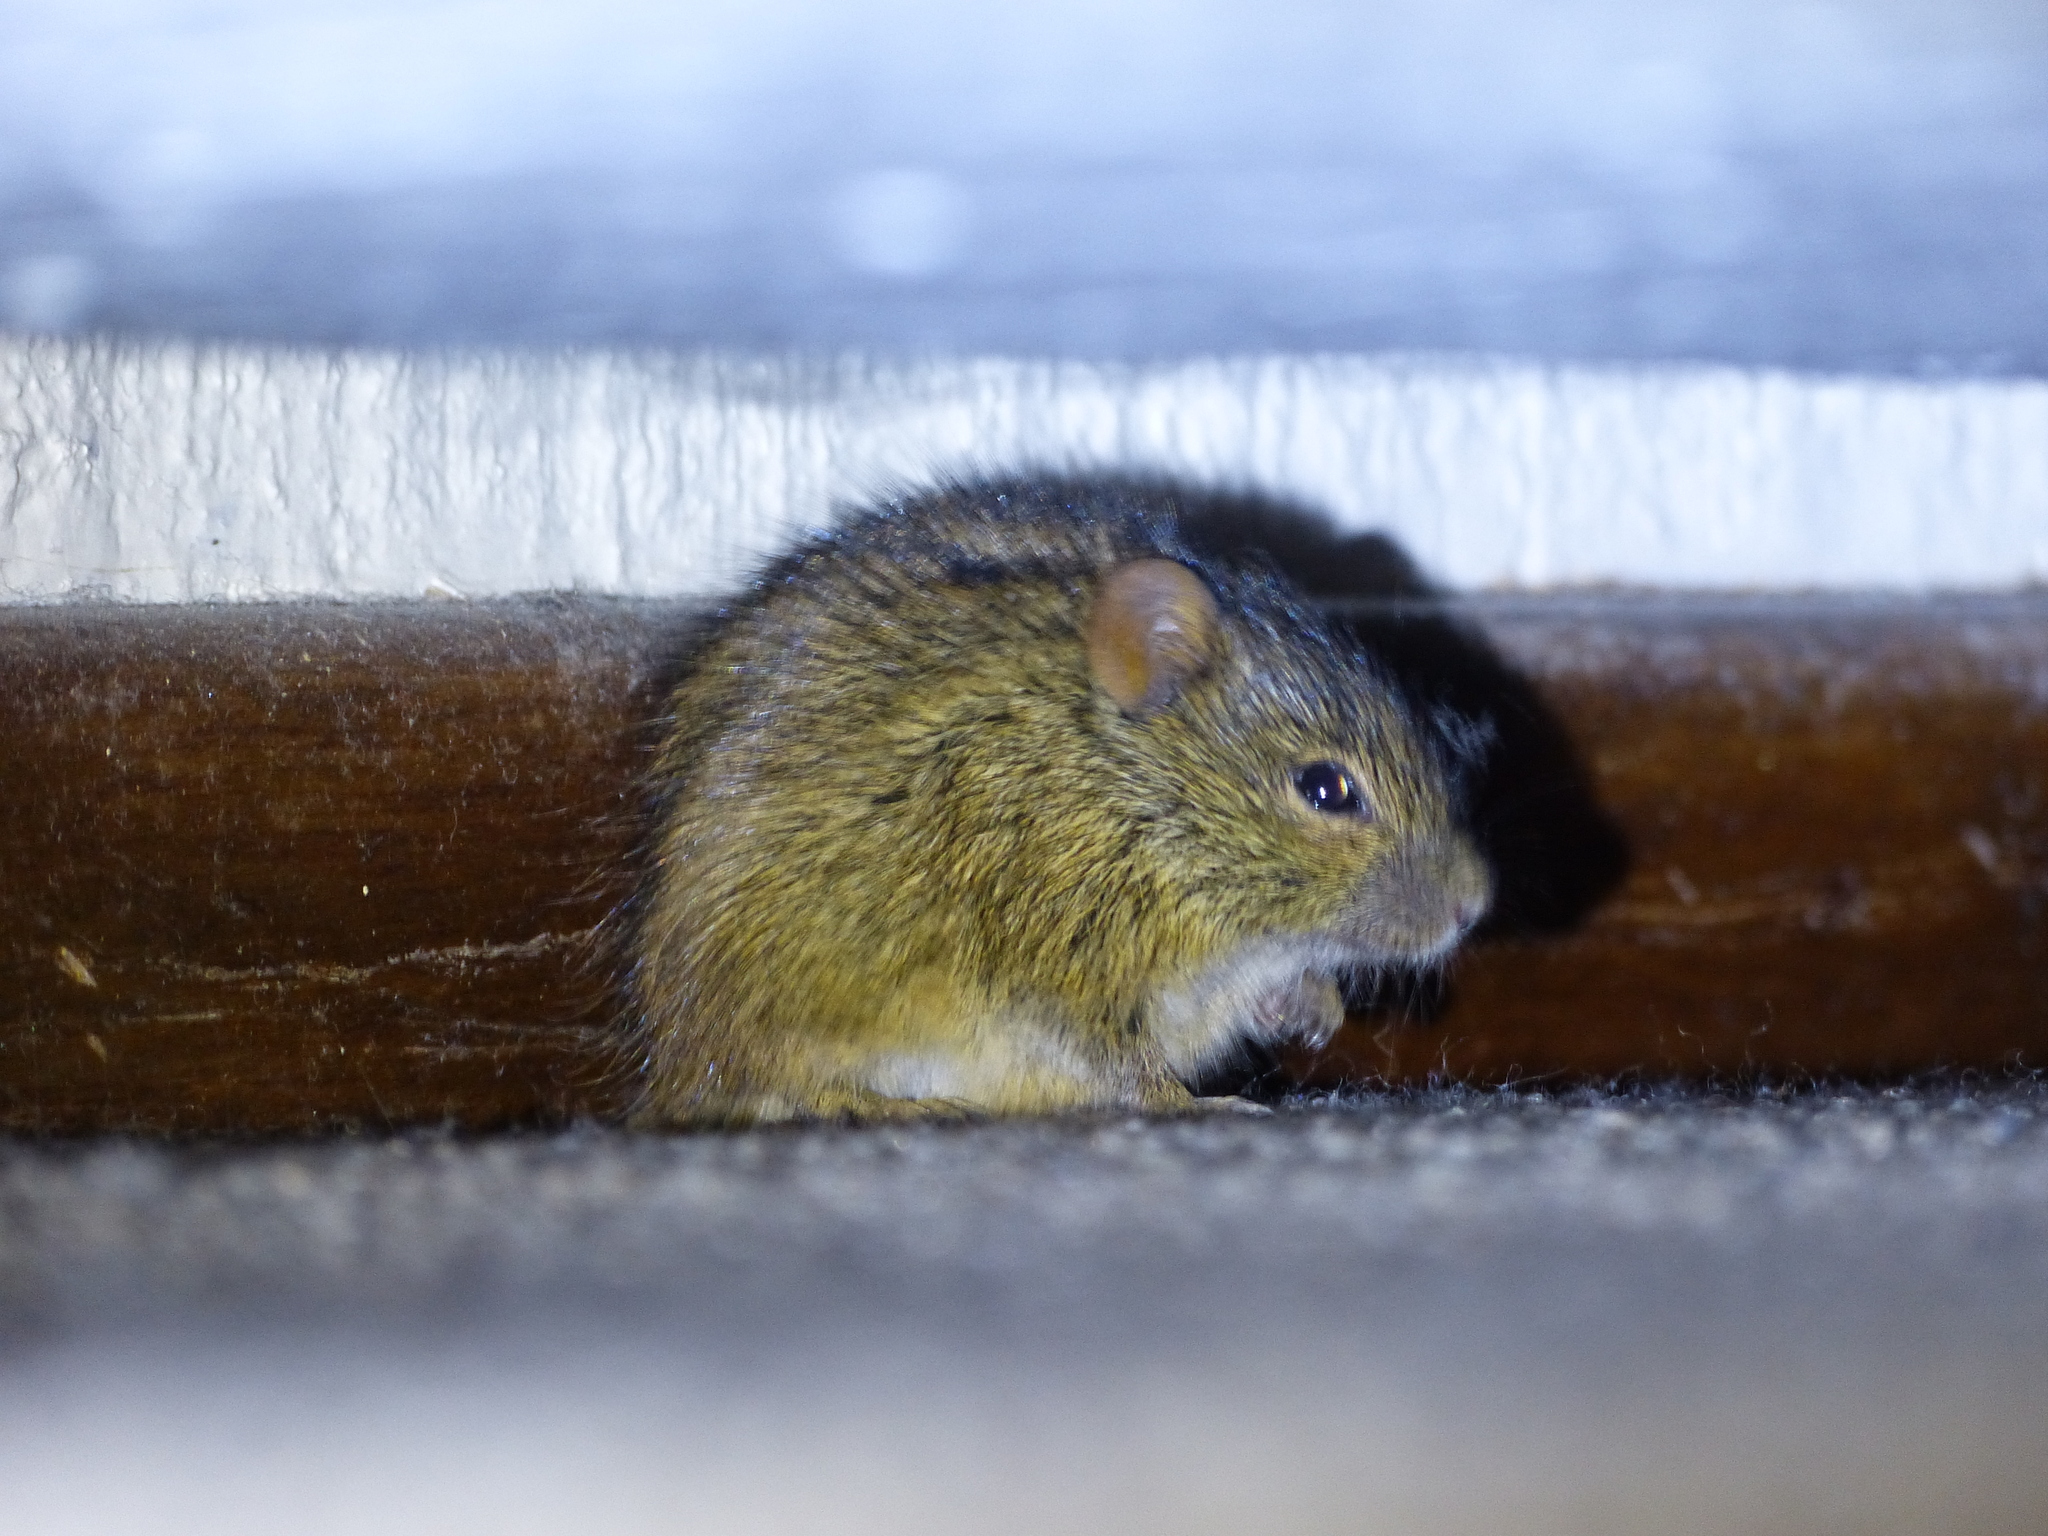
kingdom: Animalia
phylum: Chordata
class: Mammalia
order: Rodentia
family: Muridae
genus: Rhabdomys
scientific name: Rhabdomys dilectus
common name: Mesic four-striped grass rat
